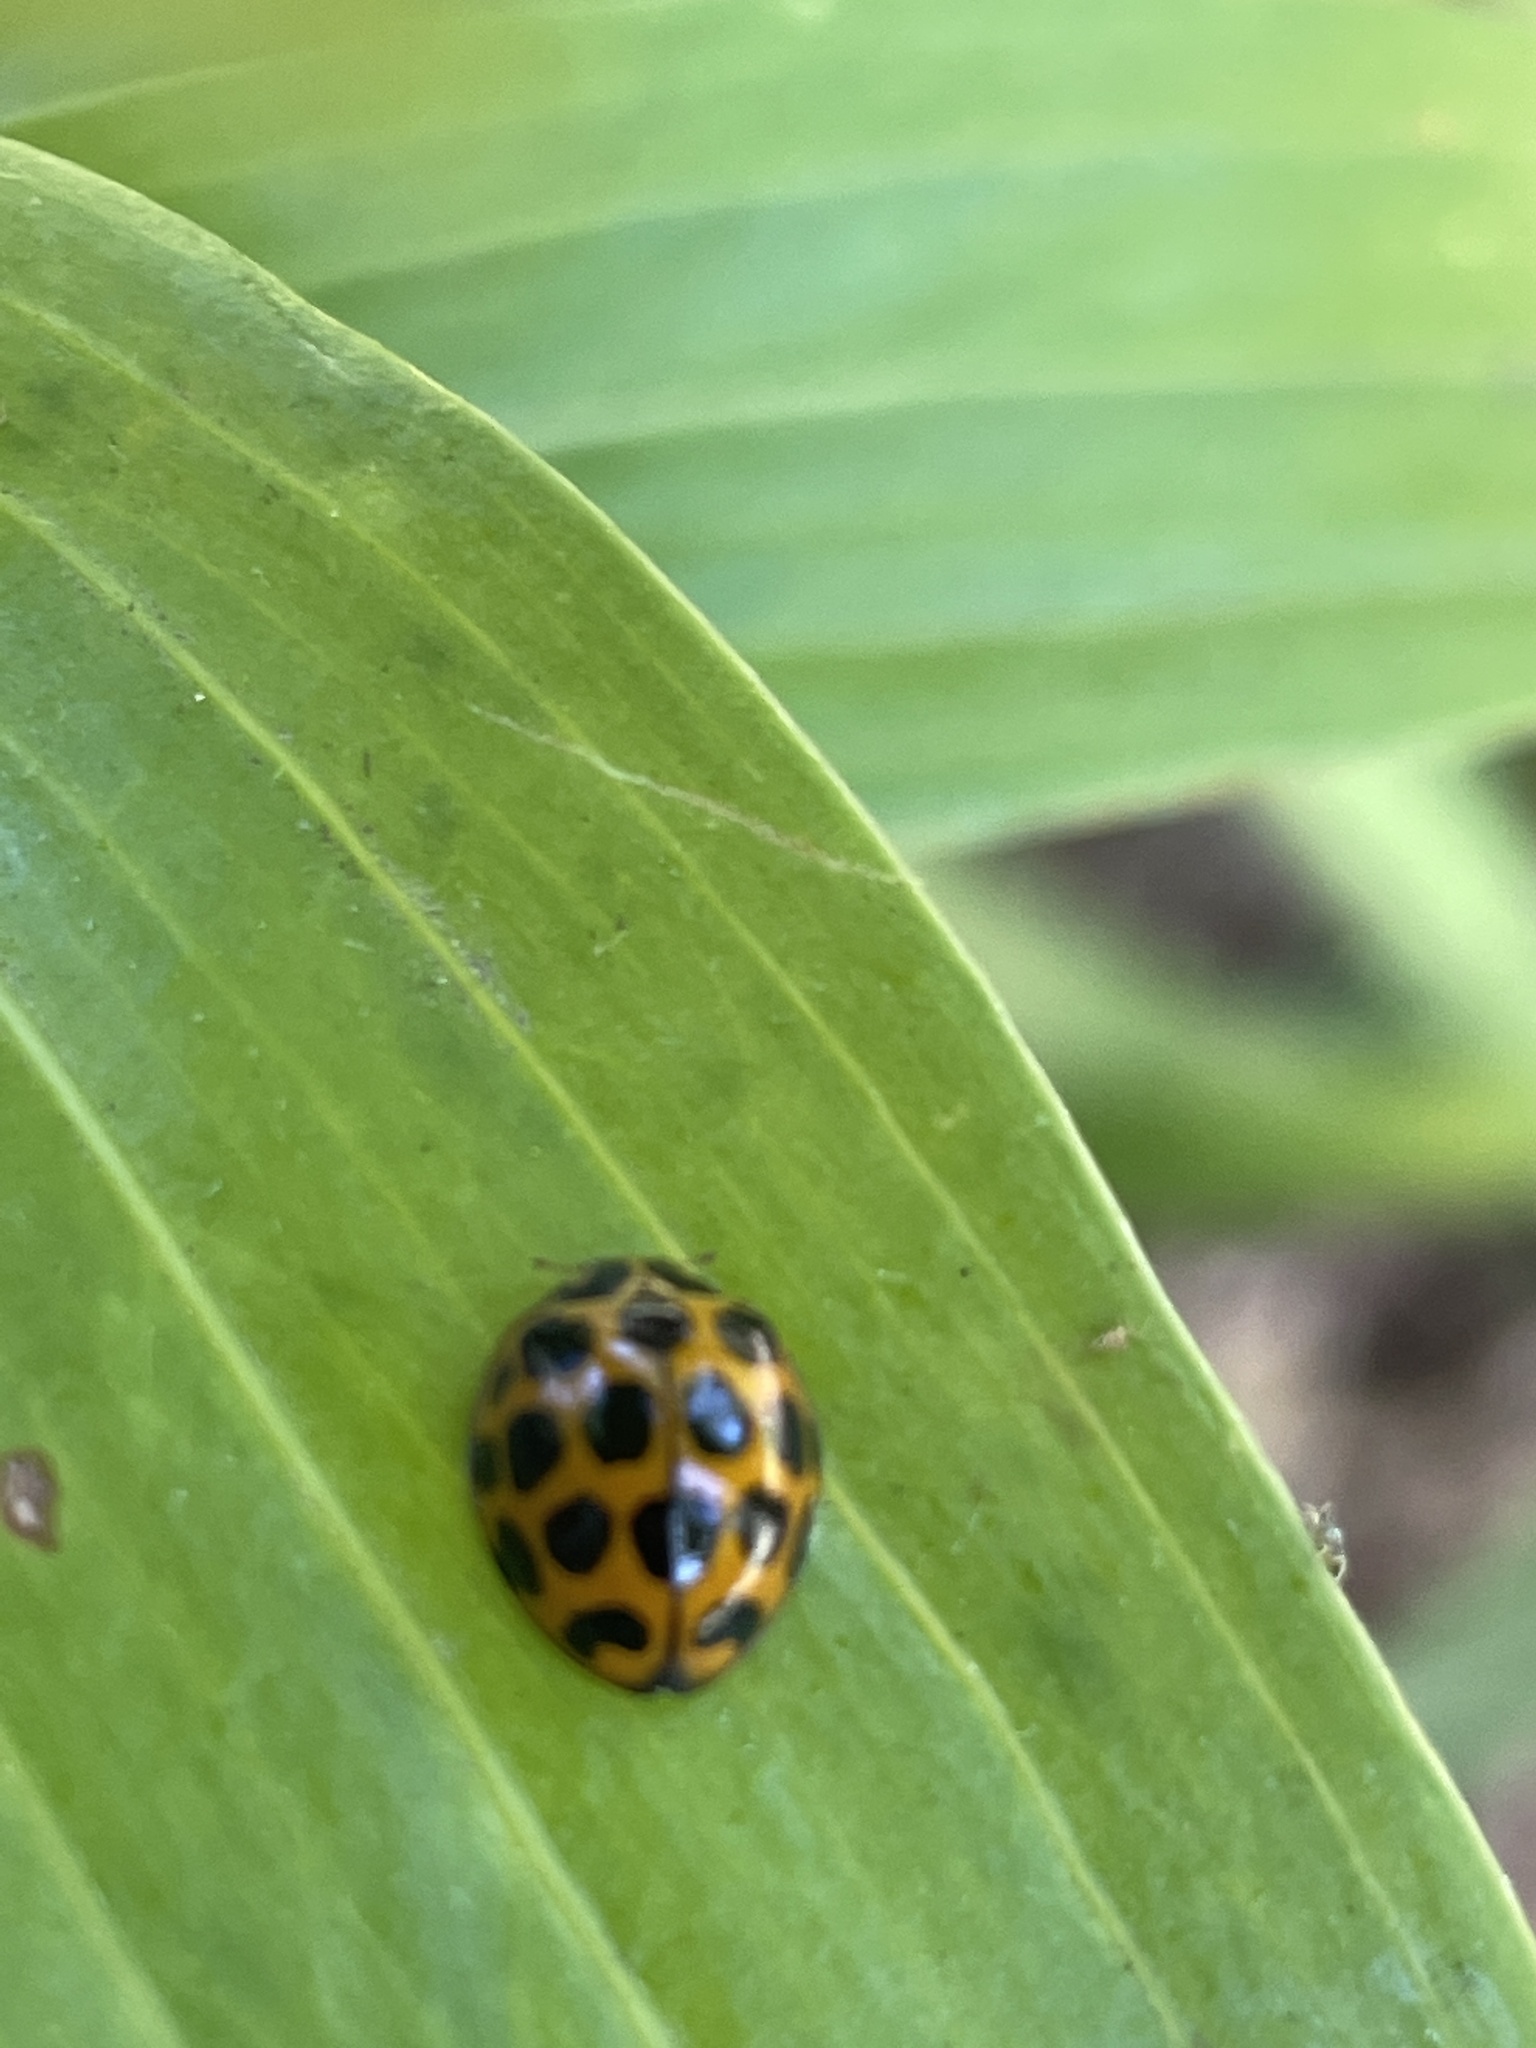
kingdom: Animalia
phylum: Arthropoda
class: Insecta
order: Coleoptera
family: Coccinellidae
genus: Harmonia
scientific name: Harmonia conformis
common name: Common spotted ladybird beetle
